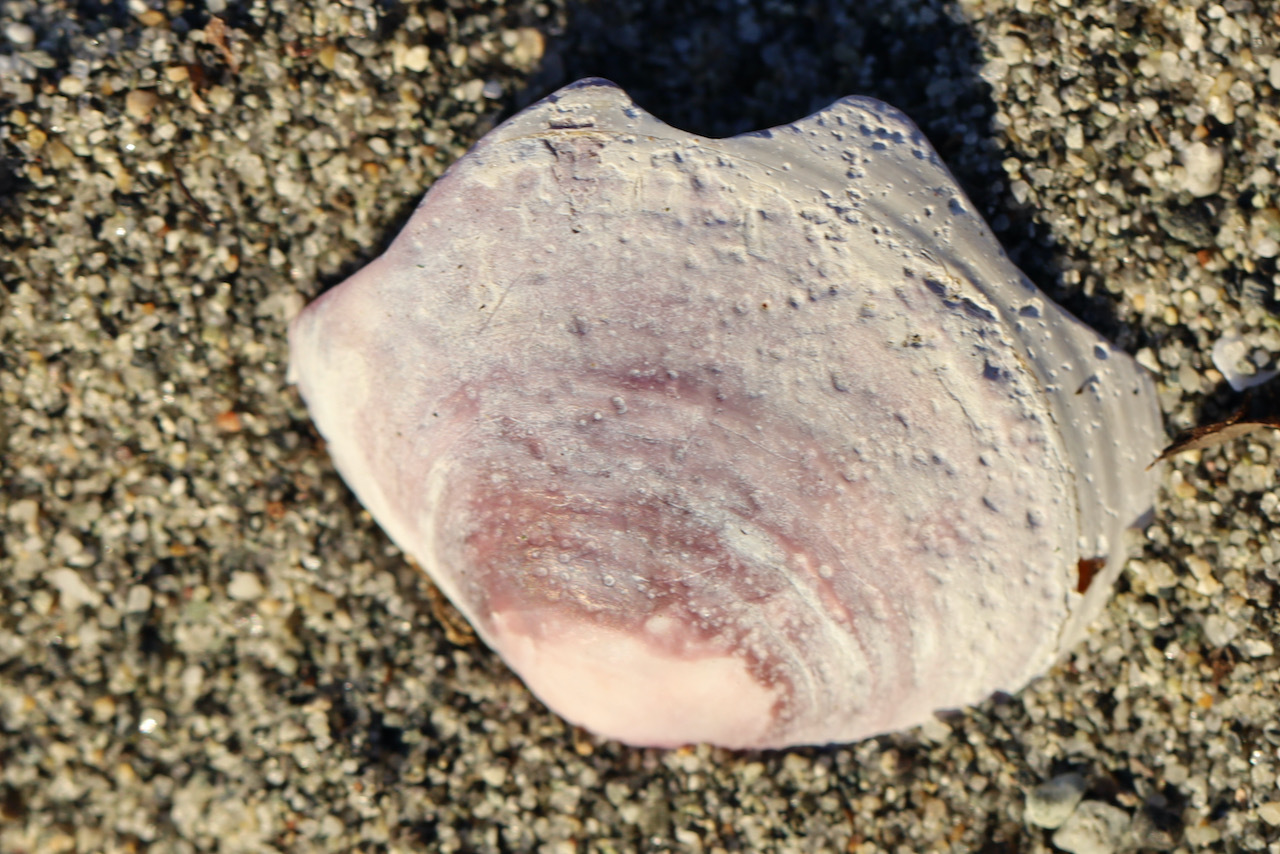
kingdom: Animalia
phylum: Mollusca
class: Bivalvia
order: Cardiida
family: Psammobiidae
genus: Nuttallia
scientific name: Nuttallia obscurata
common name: Purple mahogany-clam
